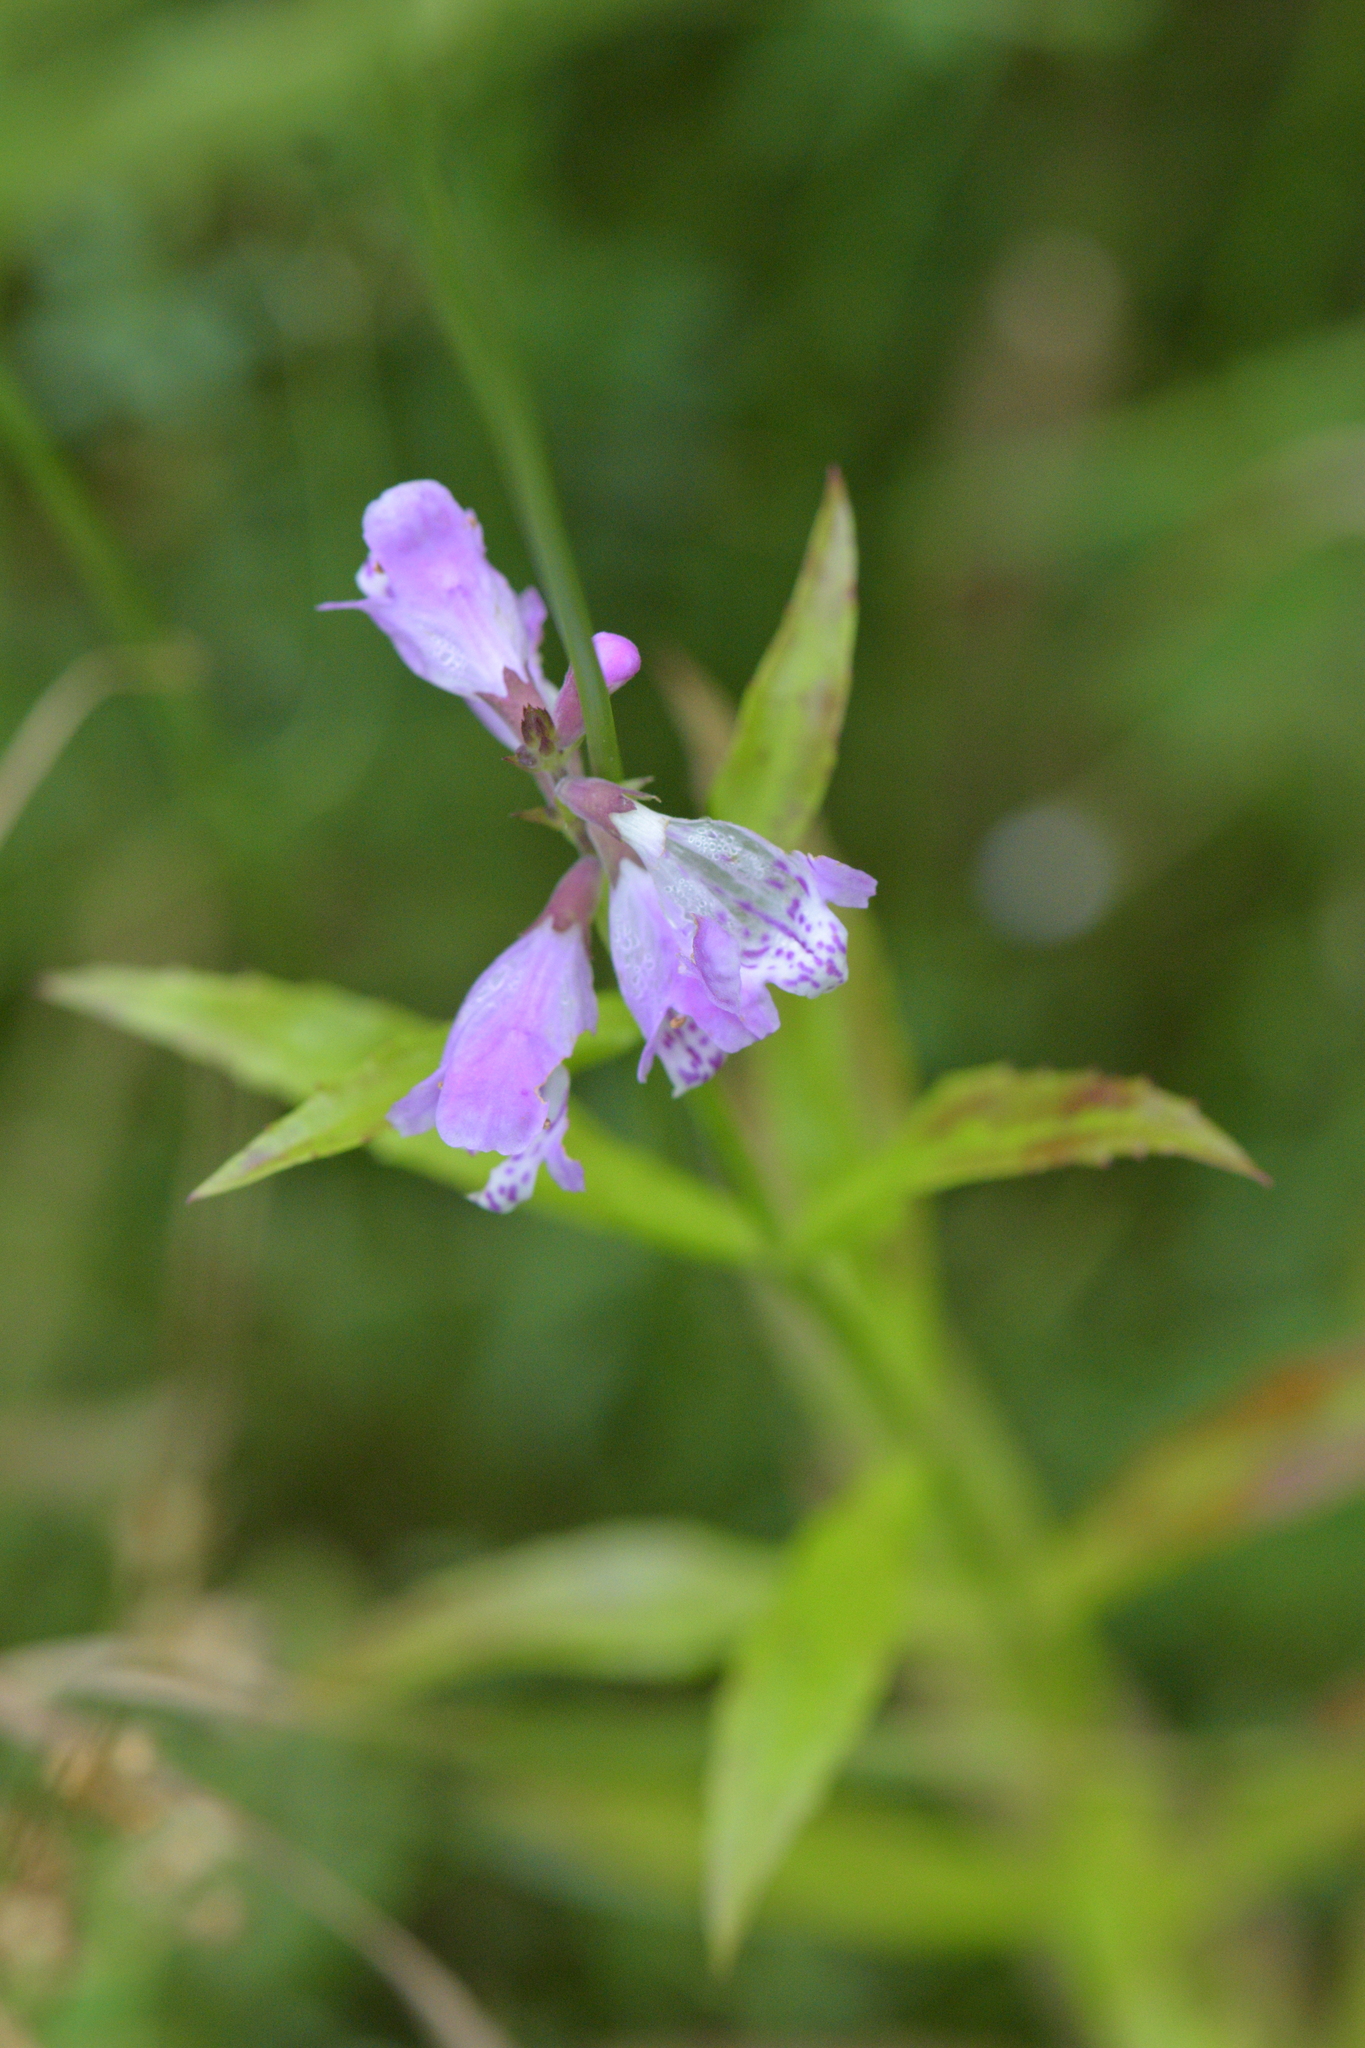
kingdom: Plantae
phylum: Tracheophyta
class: Magnoliopsida
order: Lamiales
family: Lamiaceae
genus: Physostegia
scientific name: Physostegia virginiana
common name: Obedient-plant
